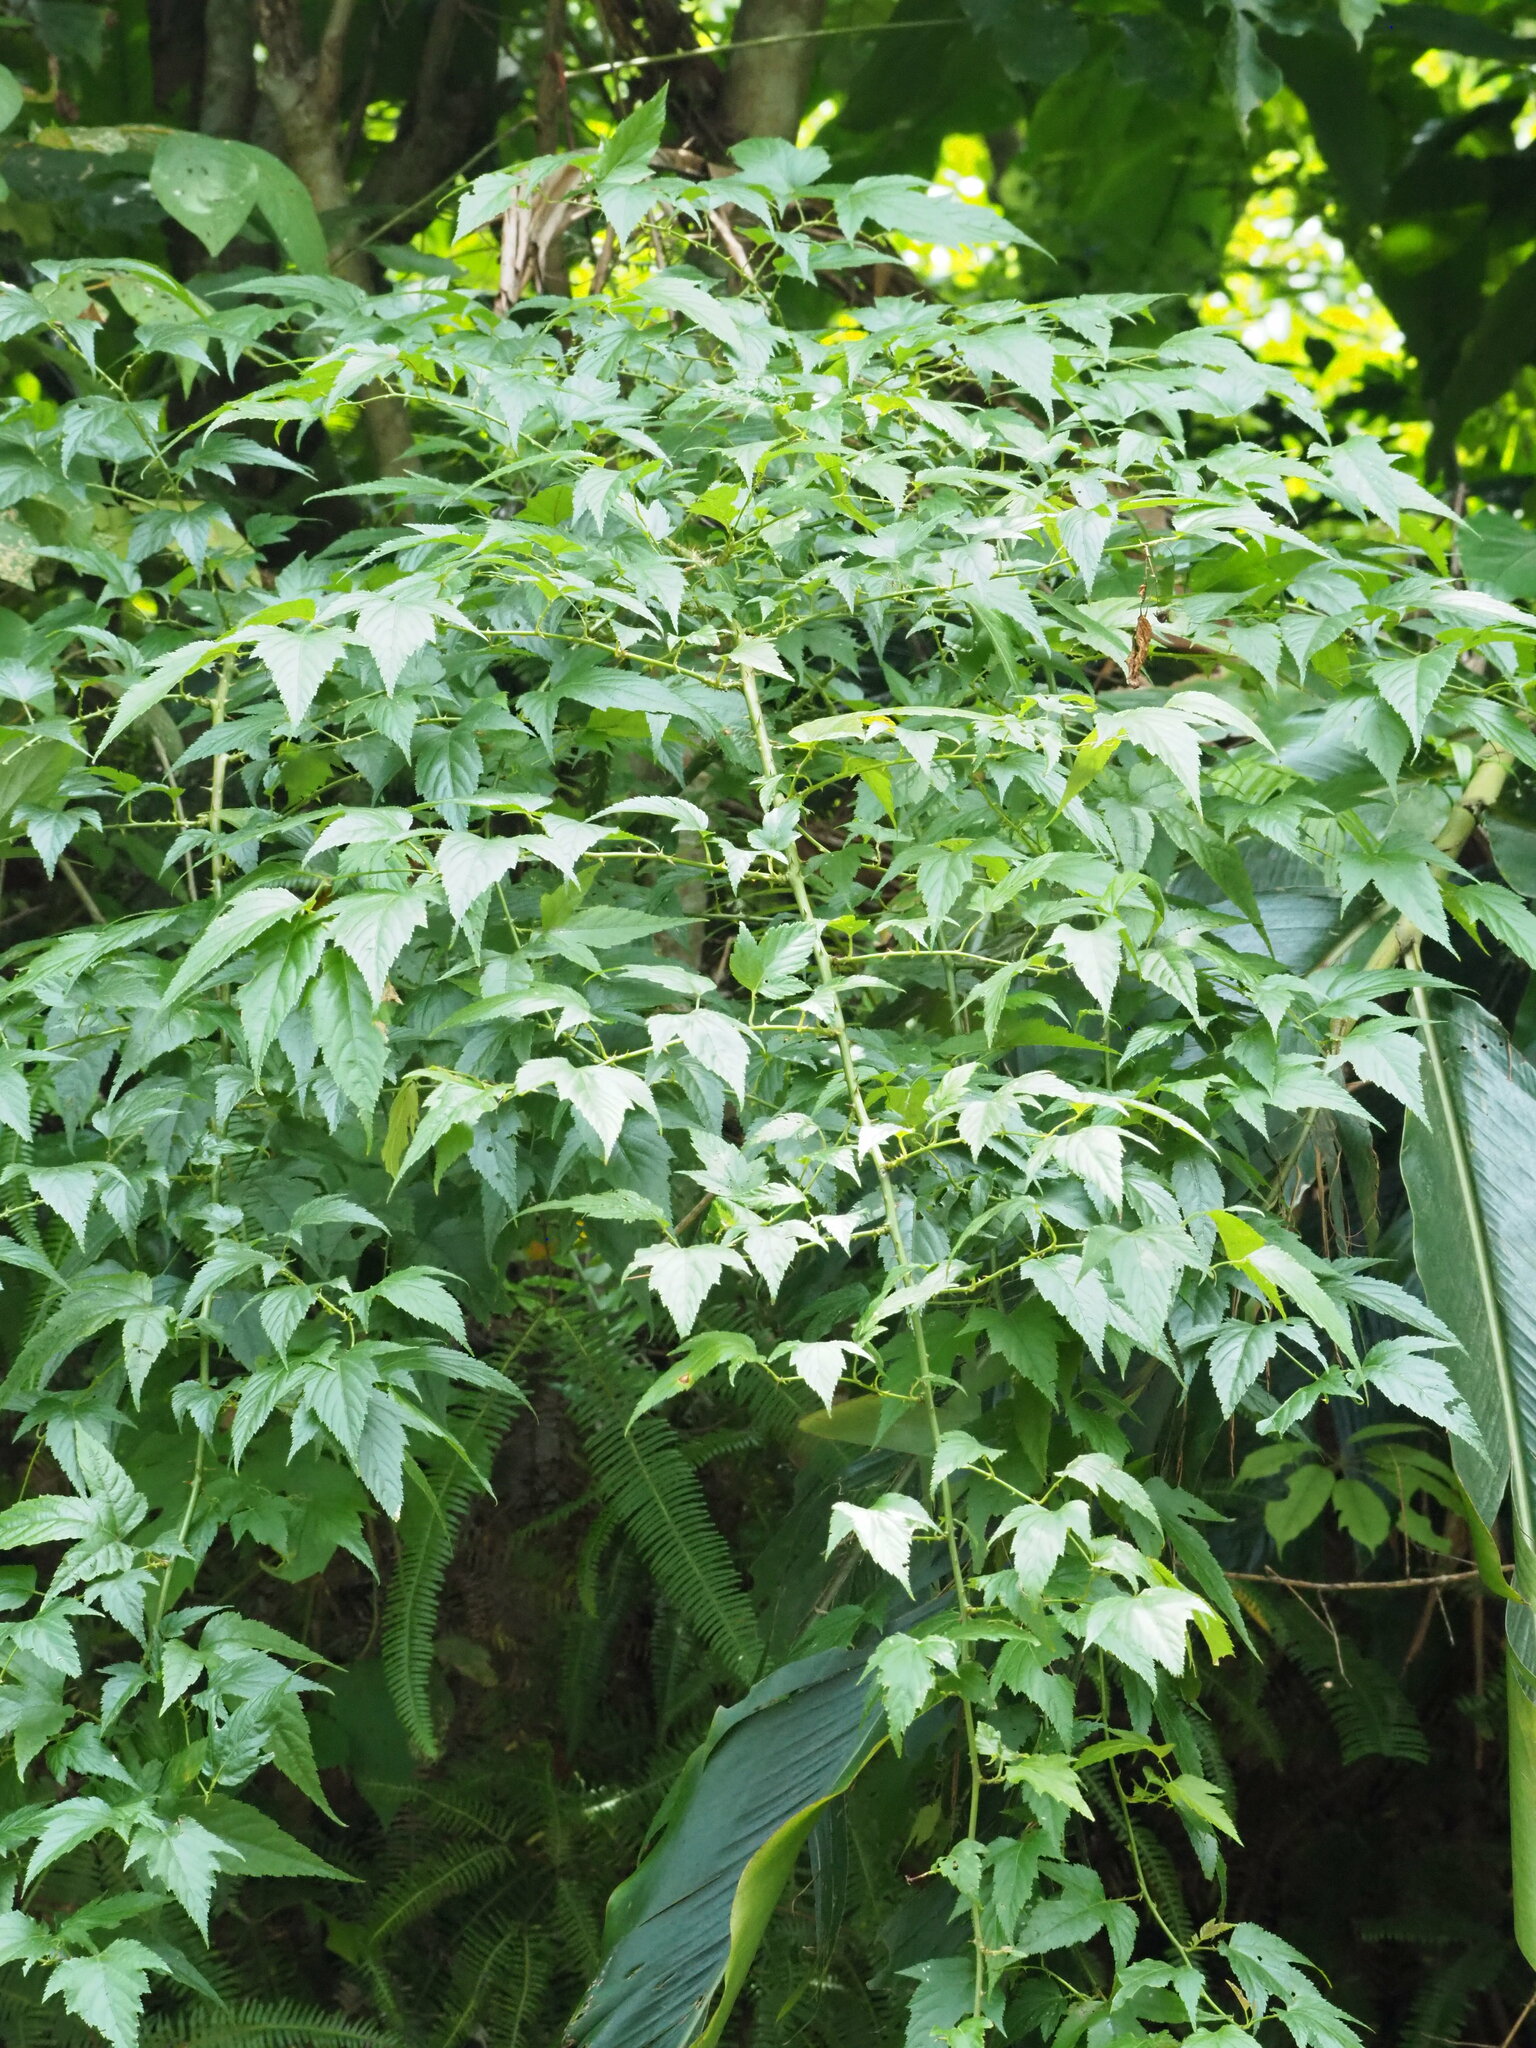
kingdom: Plantae
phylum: Tracheophyta
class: Magnoliopsida
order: Rosales
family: Rosaceae
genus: Rubus
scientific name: Rubus corchorifolius
